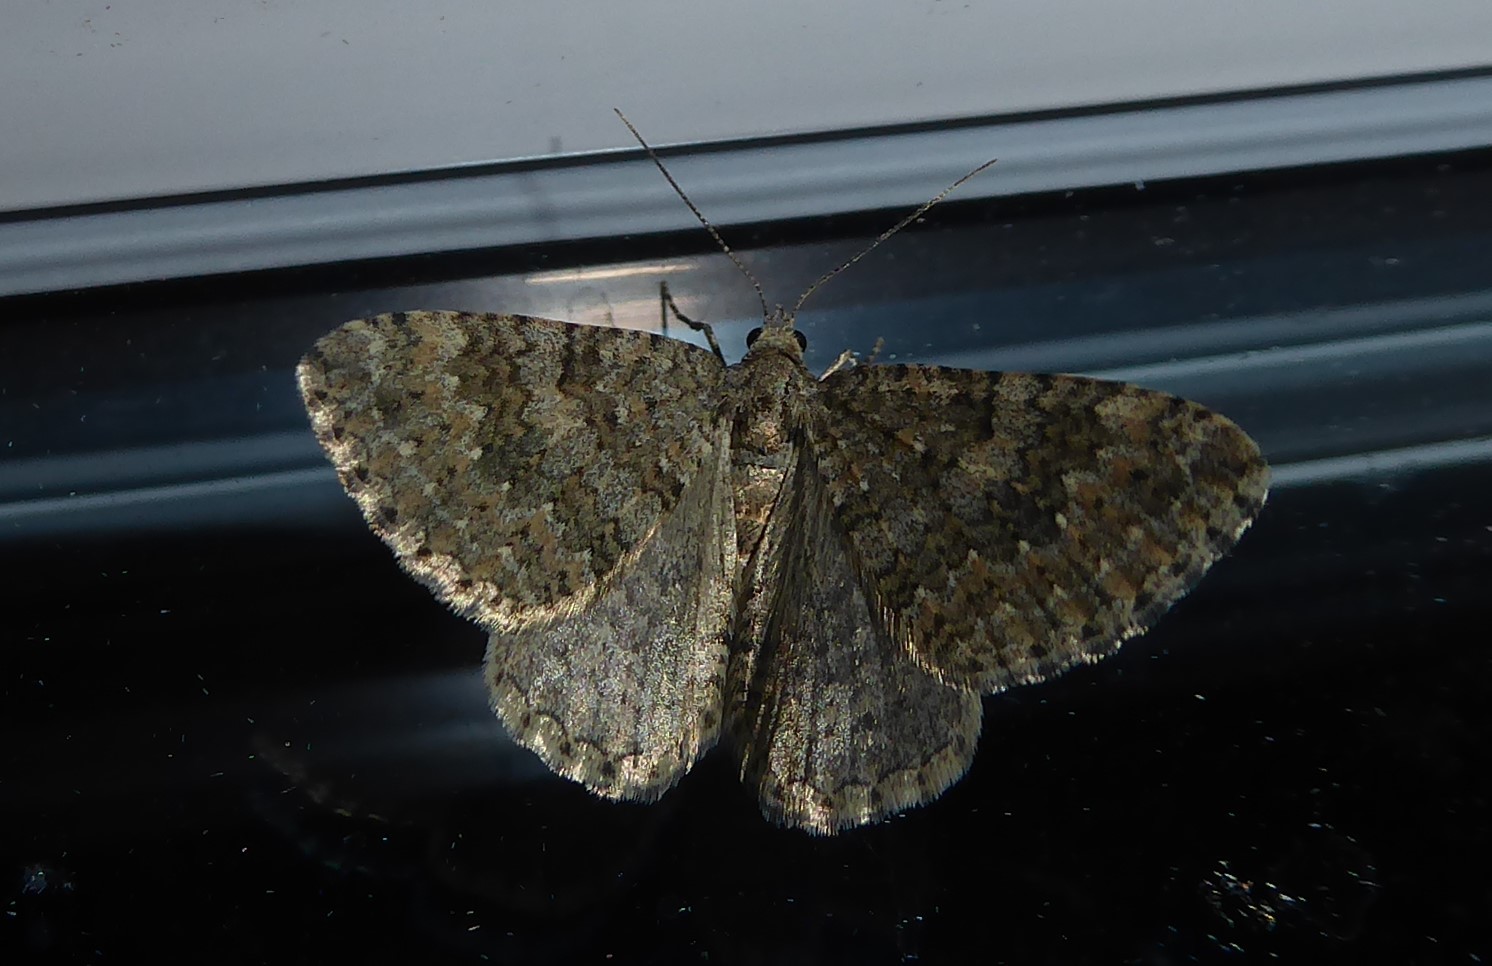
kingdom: Animalia
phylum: Arthropoda
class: Insecta
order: Lepidoptera
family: Geometridae
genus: Helastia
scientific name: Helastia corcularia
